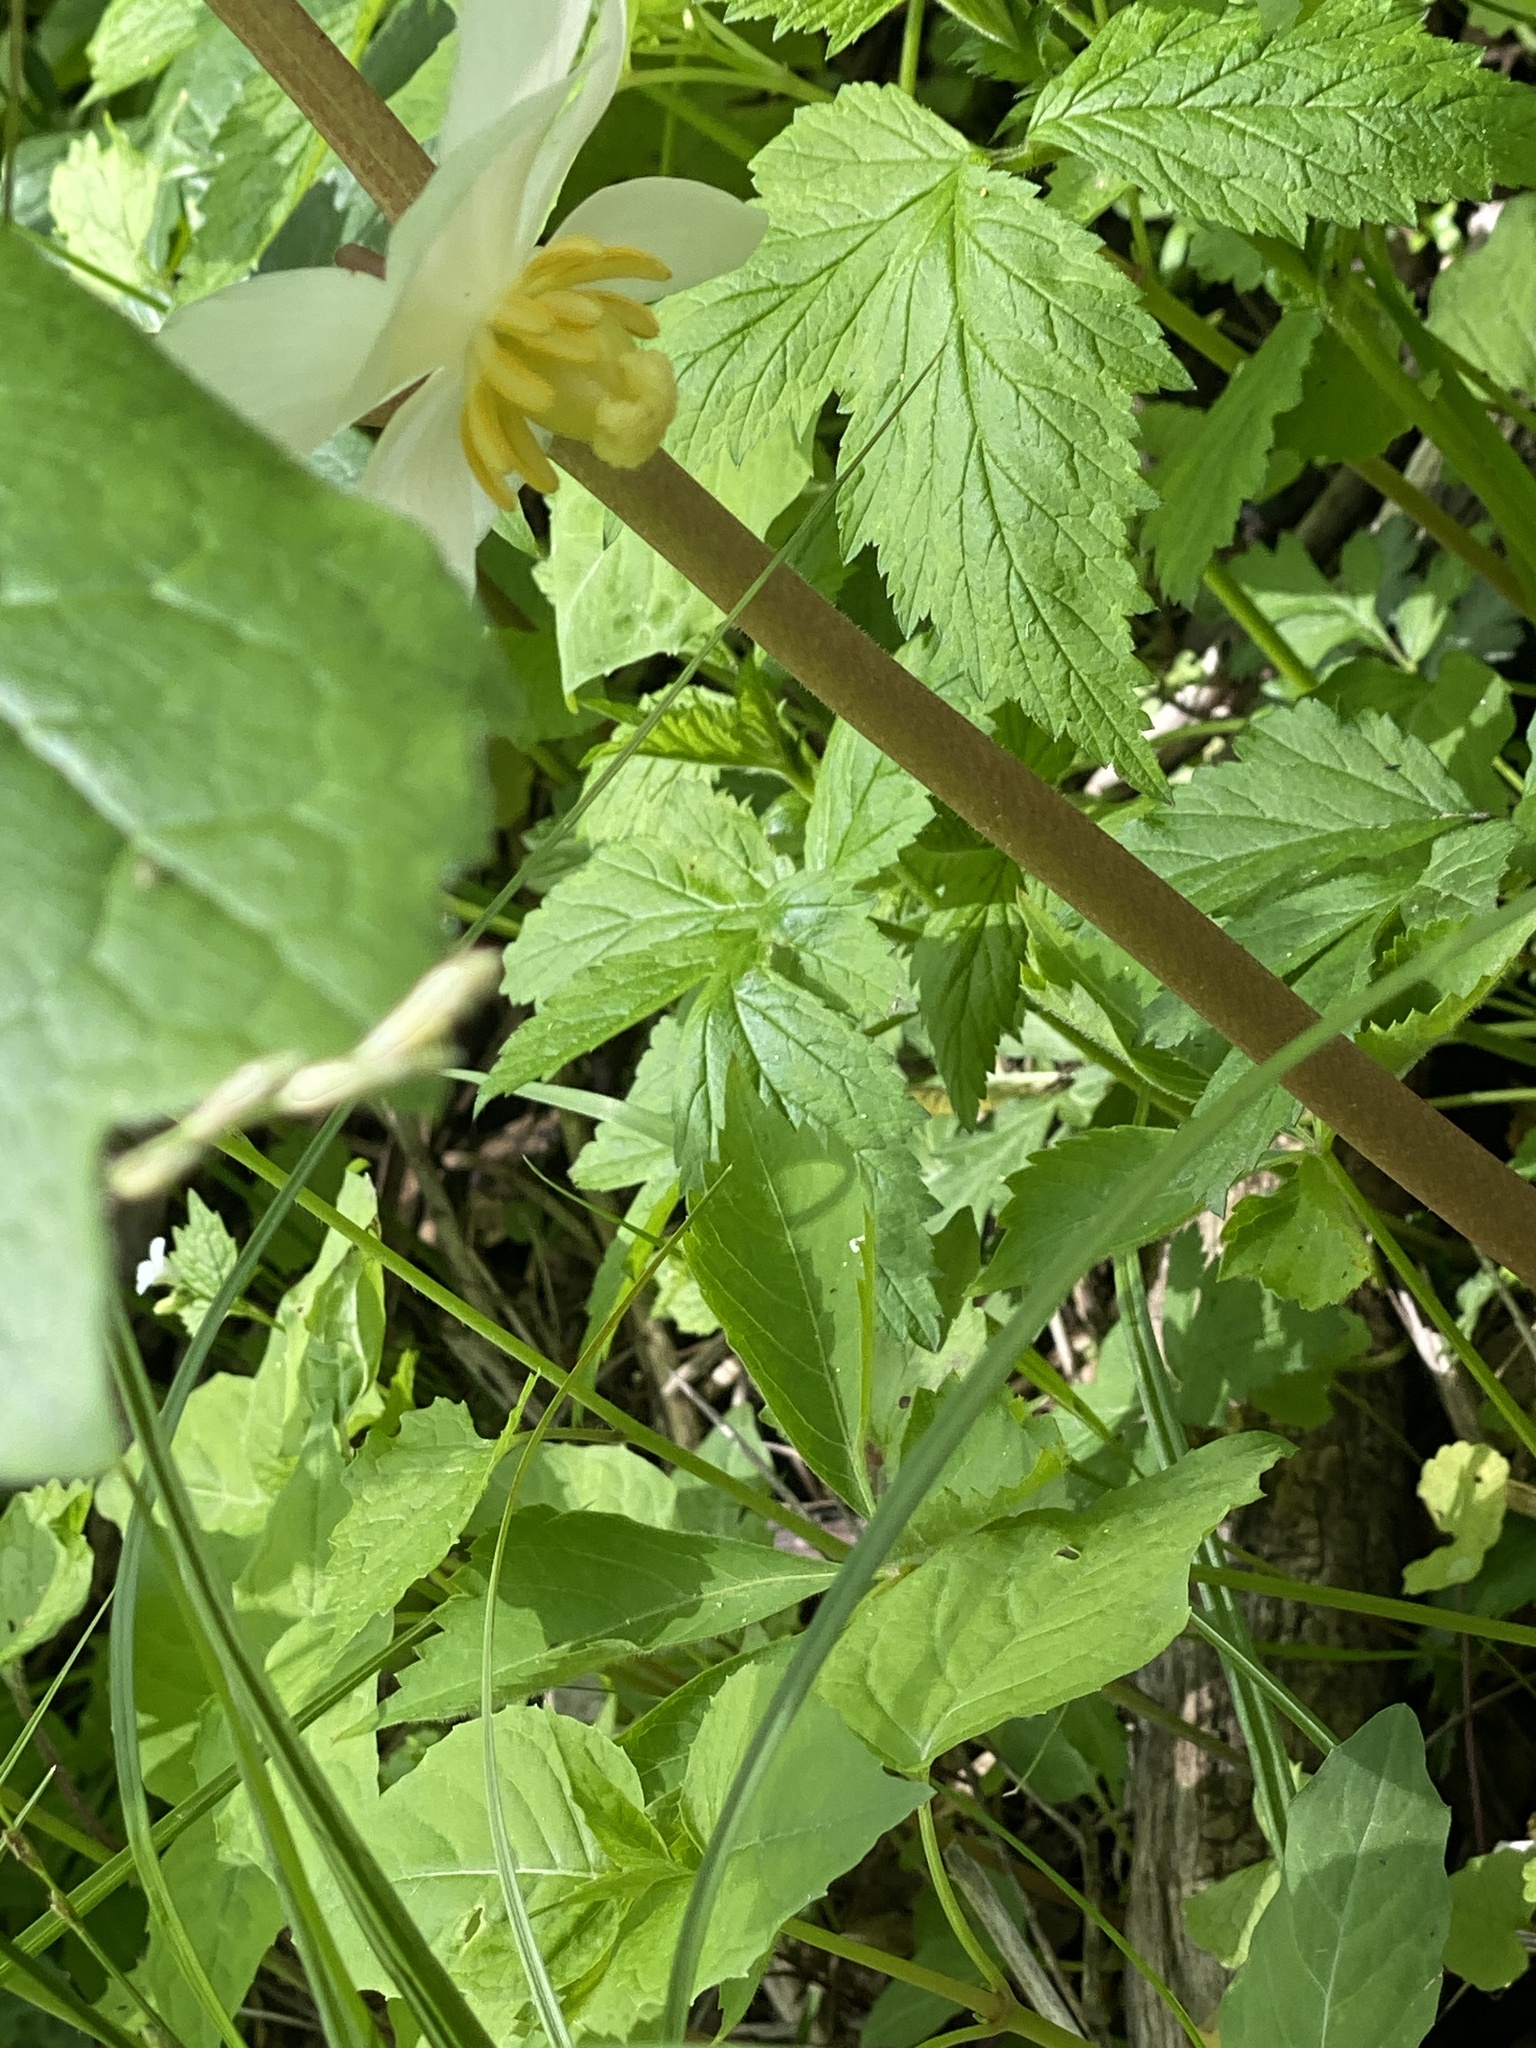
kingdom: Plantae
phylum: Tracheophyta
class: Magnoliopsida
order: Ranunculales
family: Berberidaceae
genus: Podophyllum
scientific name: Podophyllum peltatum
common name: Wild mandrake
